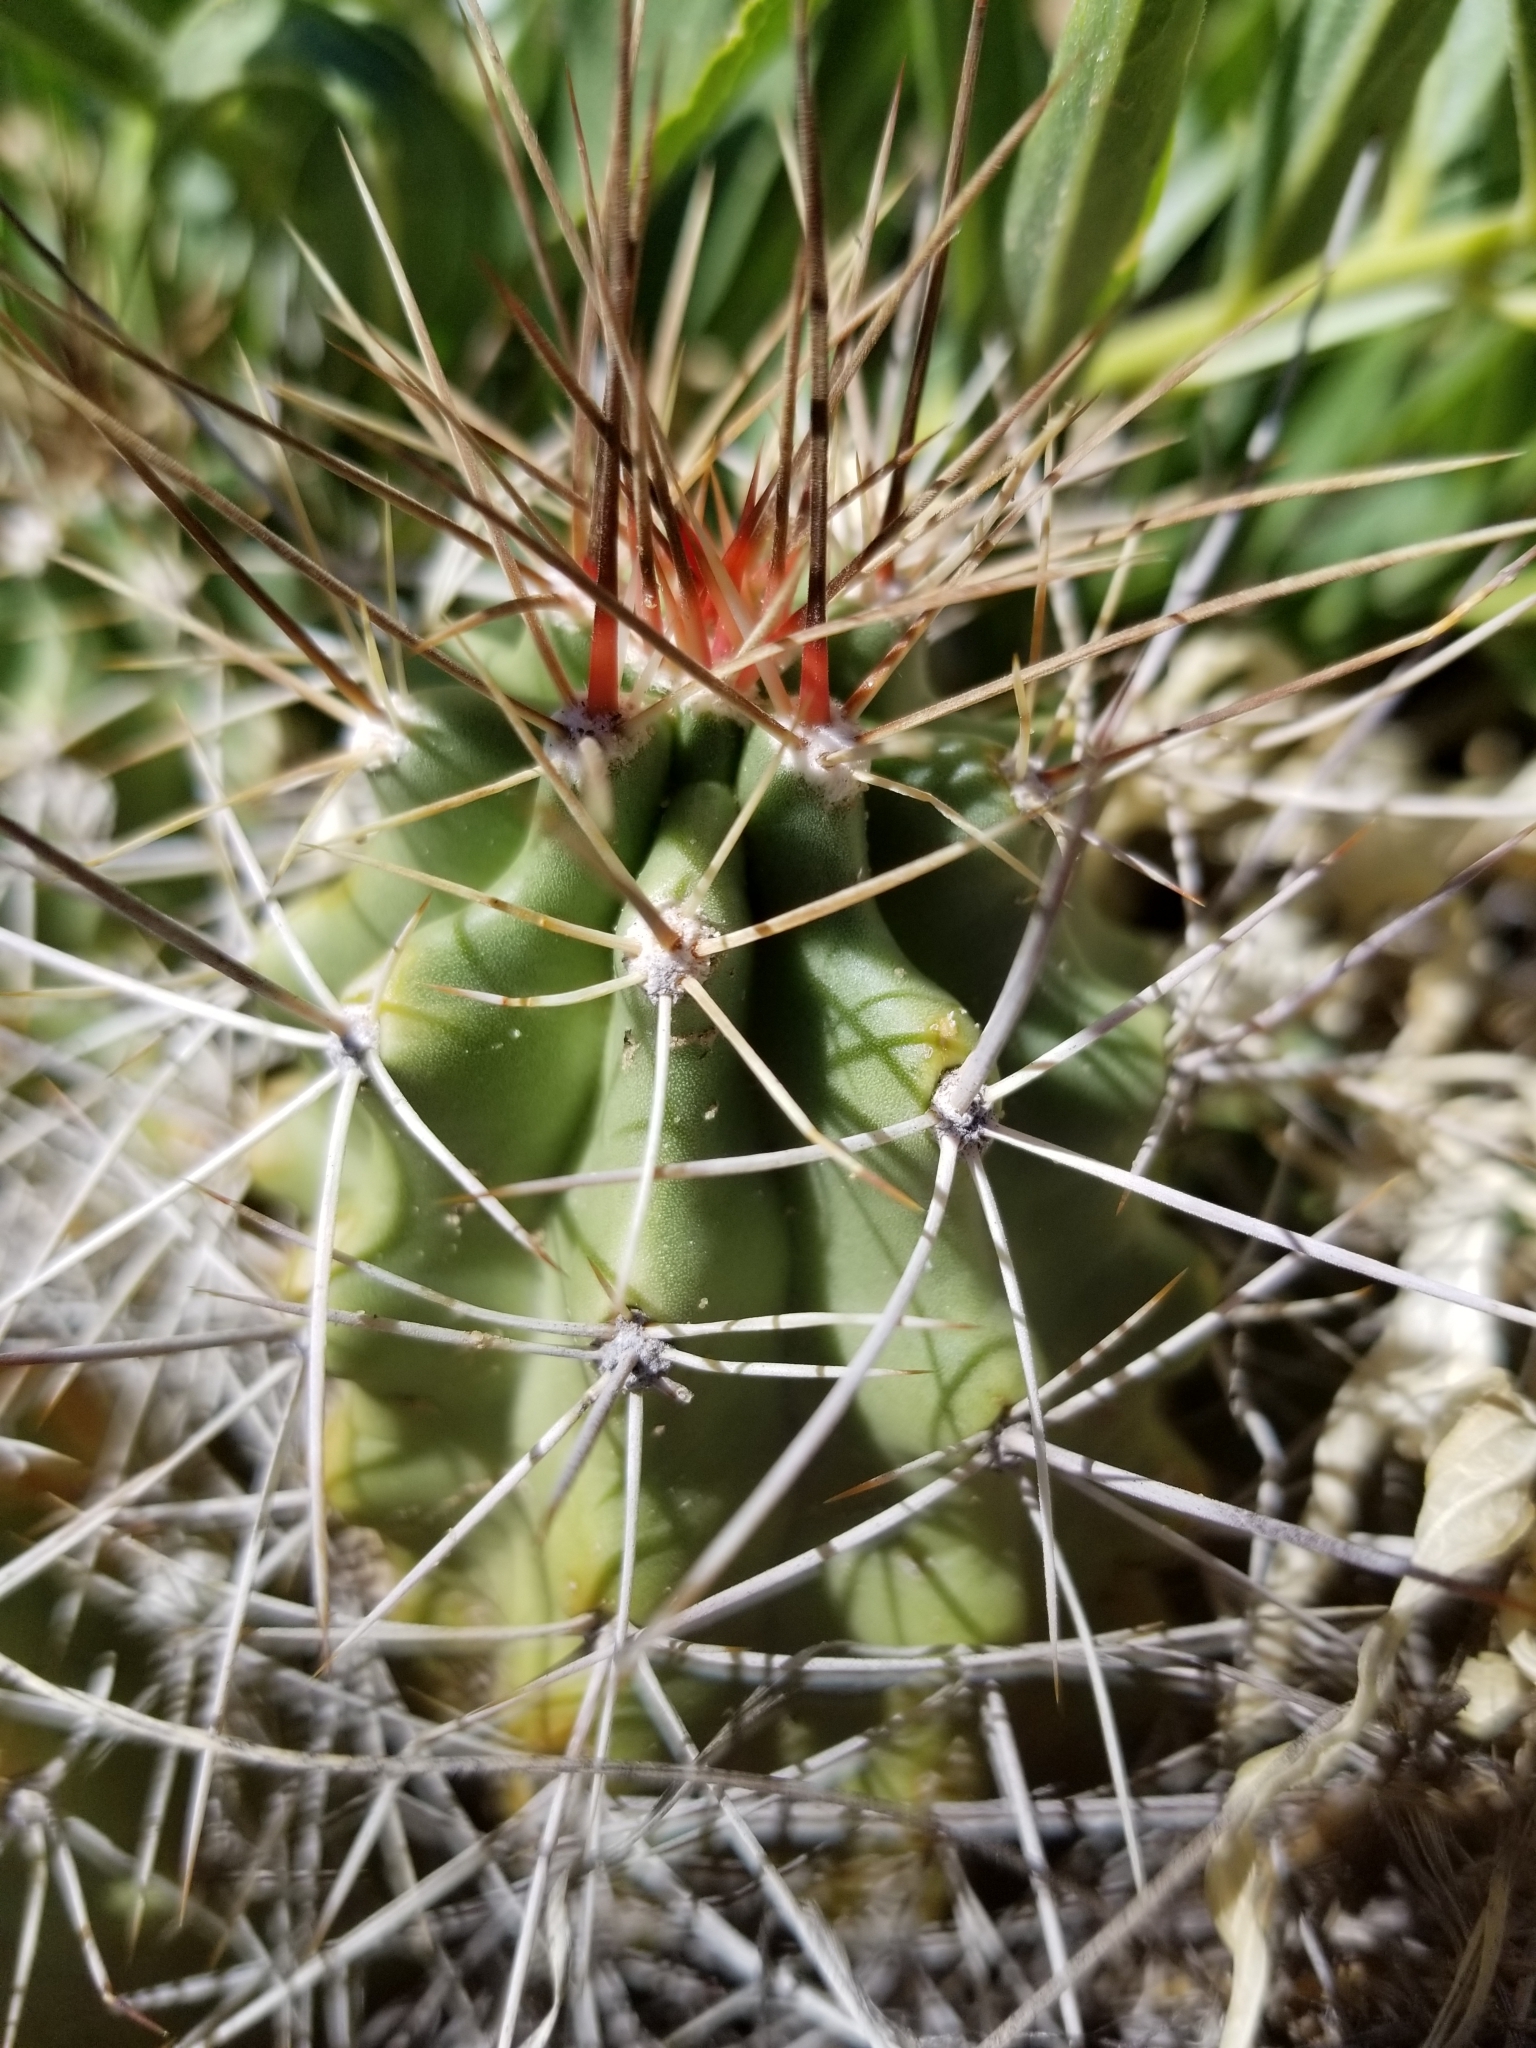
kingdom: Plantae
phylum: Tracheophyta
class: Magnoliopsida
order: Caryophyllales
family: Cactaceae
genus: Echinocereus
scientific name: Echinocereus triglochidiatus
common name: Claretcup hedgehog
